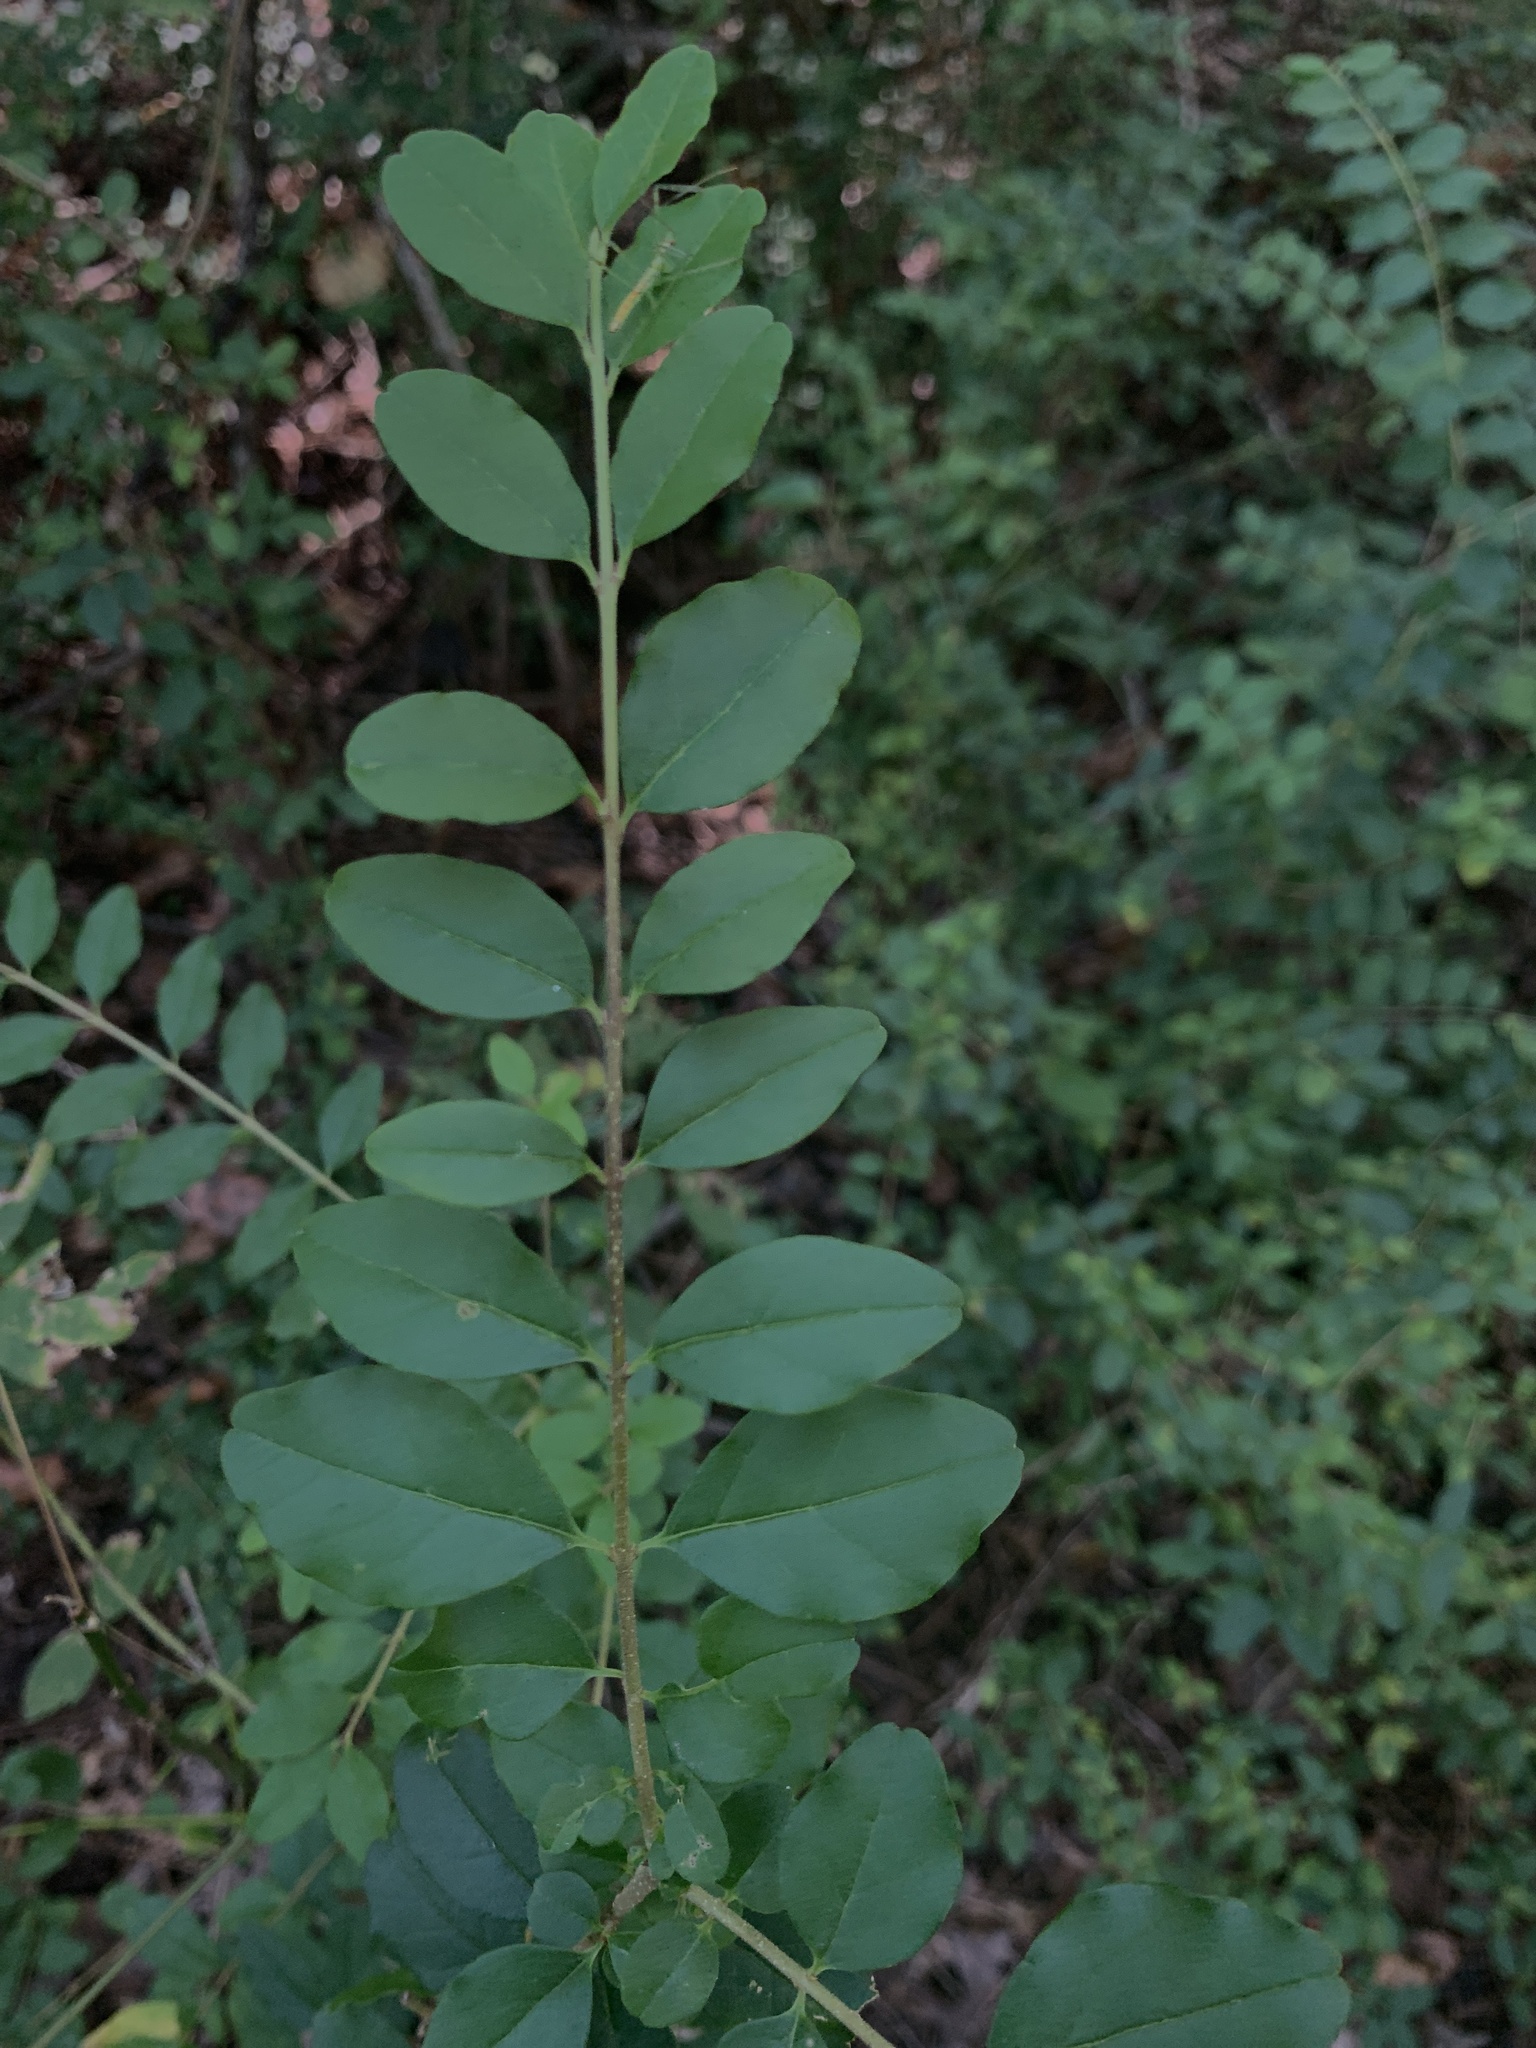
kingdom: Plantae
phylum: Tracheophyta
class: Magnoliopsida
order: Lamiales
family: Oleaceae
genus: Ligustrum
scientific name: Ligustrum sinense
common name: Chinese privet
